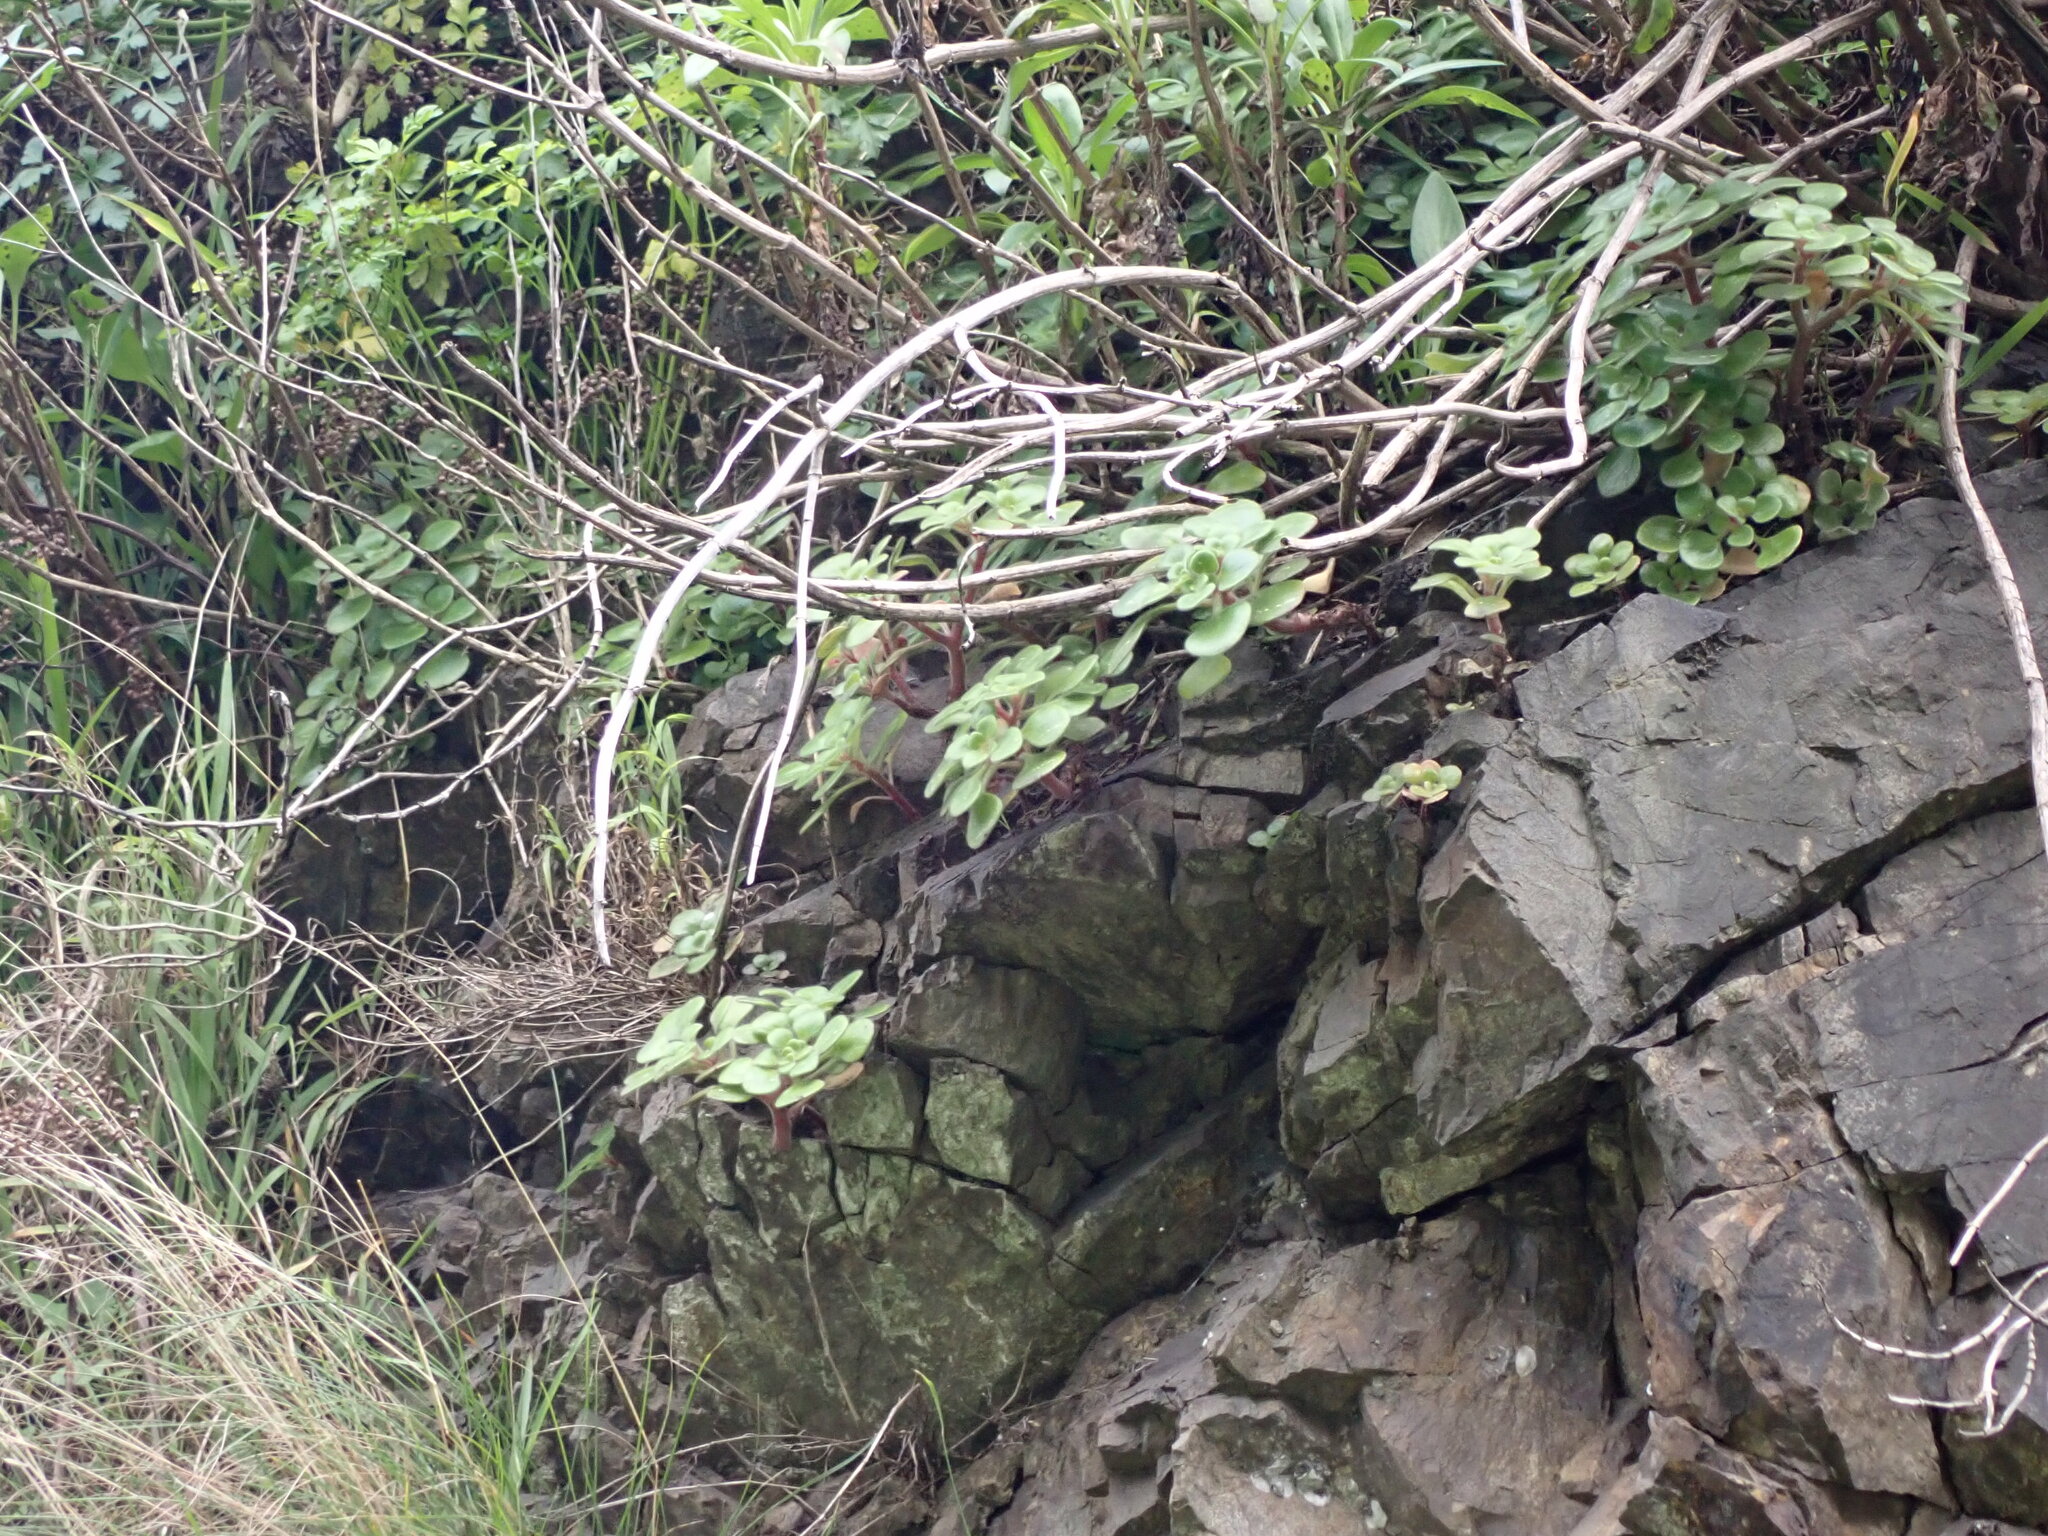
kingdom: Plantae
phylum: Tracheophyta
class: Magnoliopsida
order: Saxifragales
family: Crassulaceae
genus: Aichryson
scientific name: Aichryson laxum
